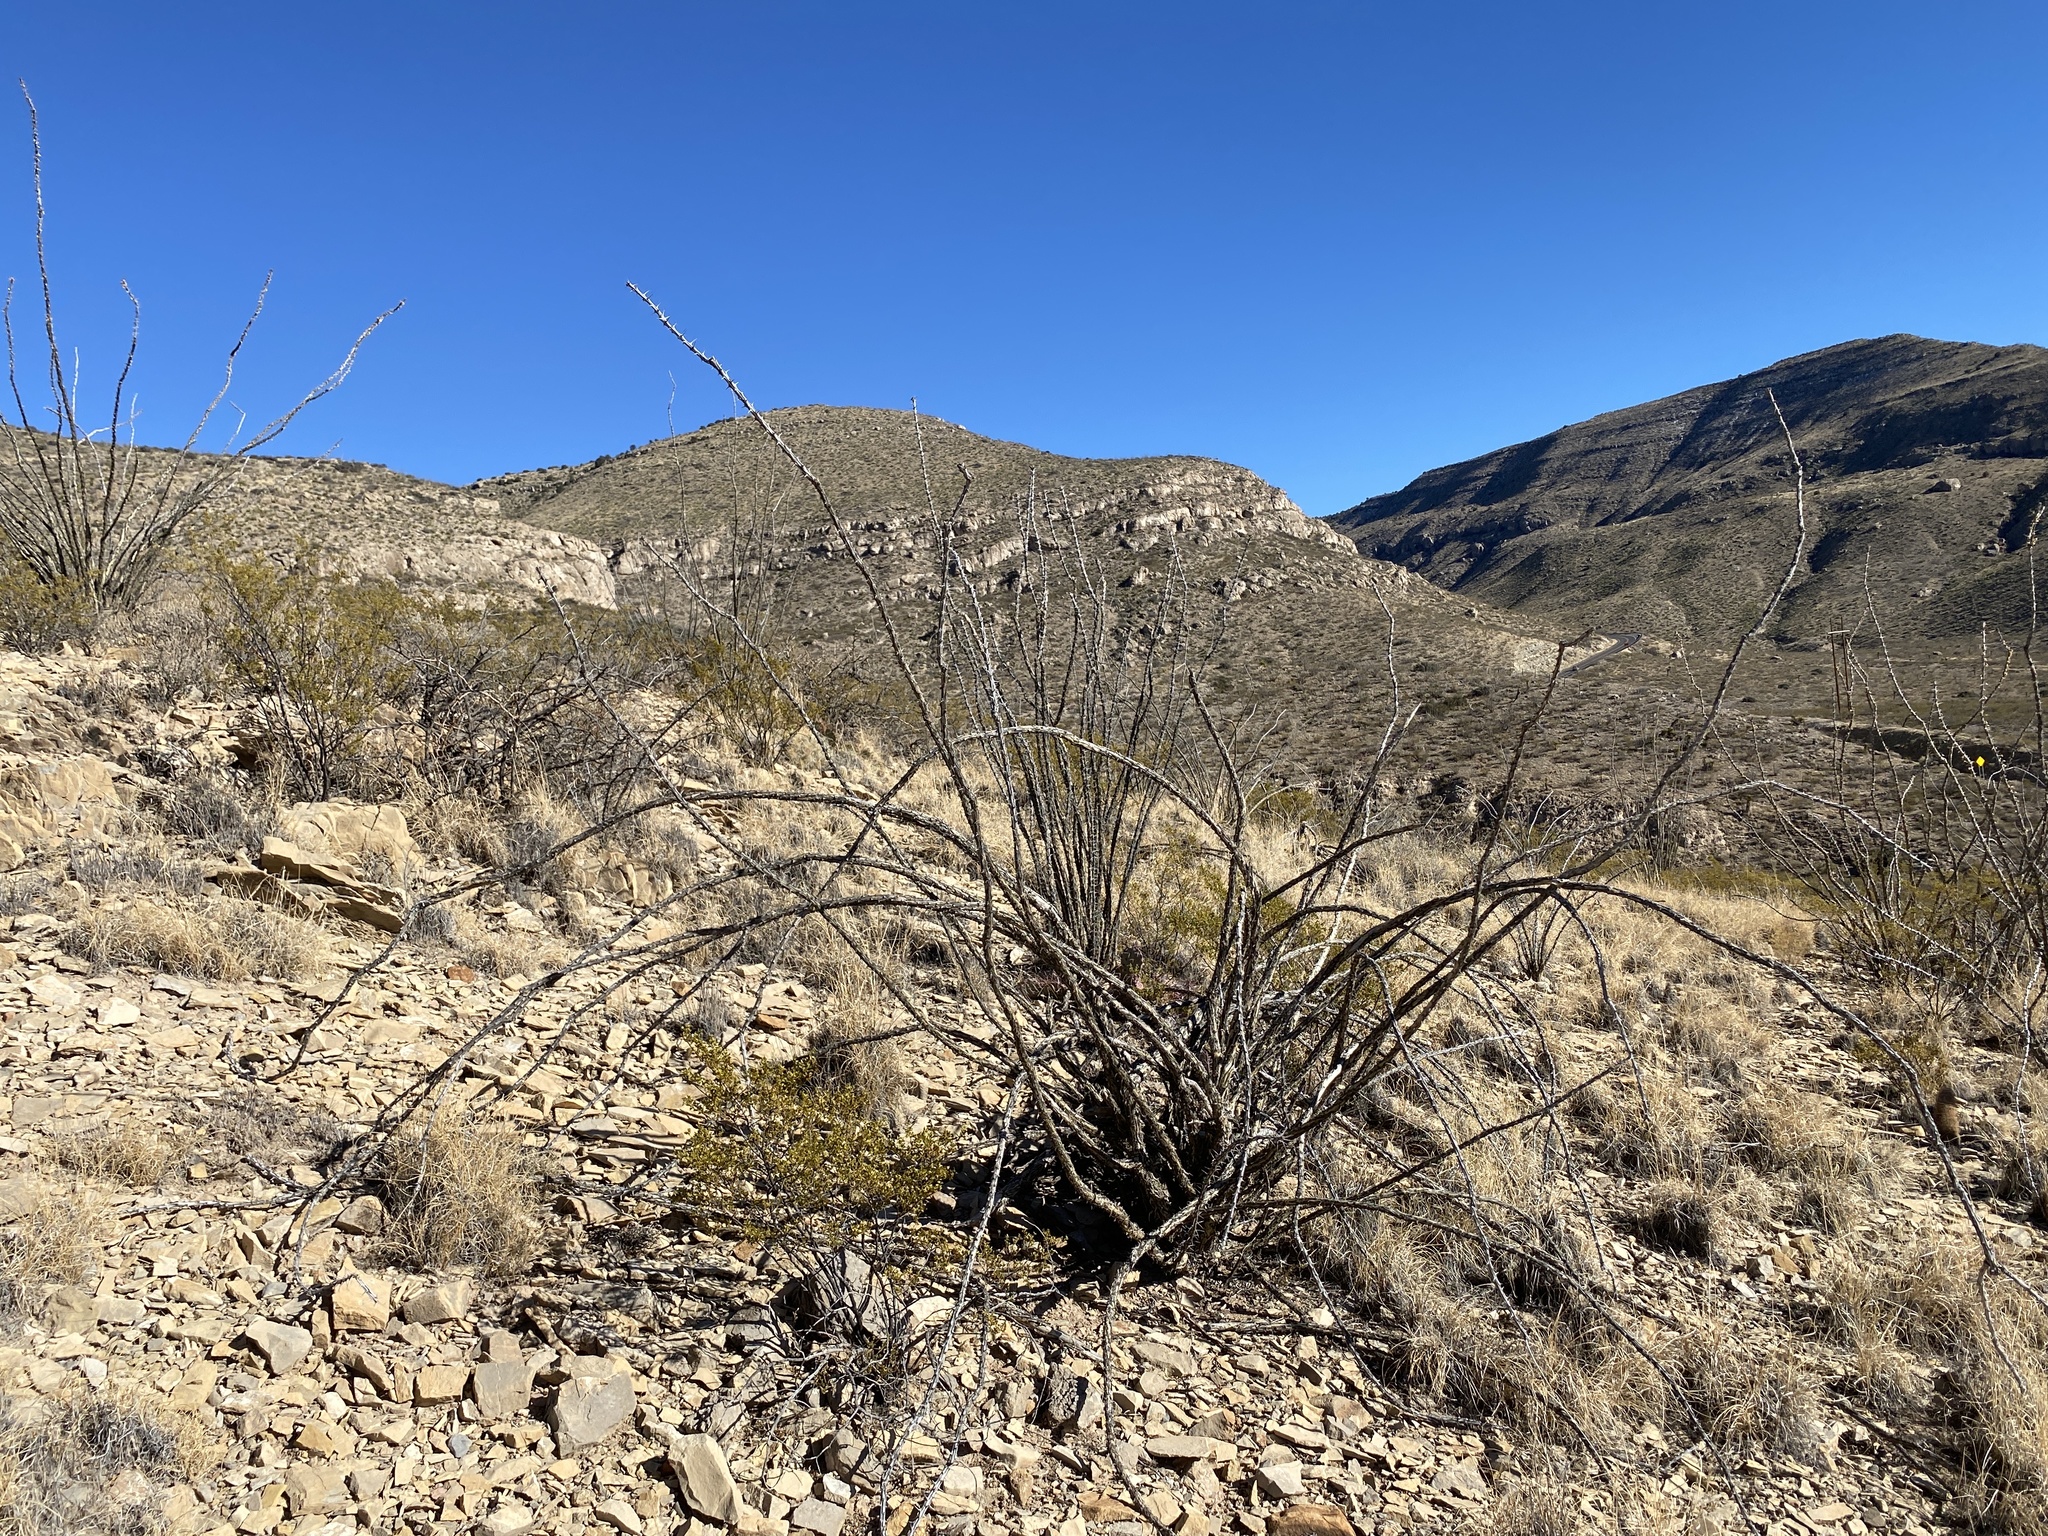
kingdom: Plantae
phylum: Tracheophyta
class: Magnoliopsida
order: Ericales
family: Fouquieriaceae
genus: Fouquieria
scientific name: Fouquieria splendens
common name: Vine-cactus
